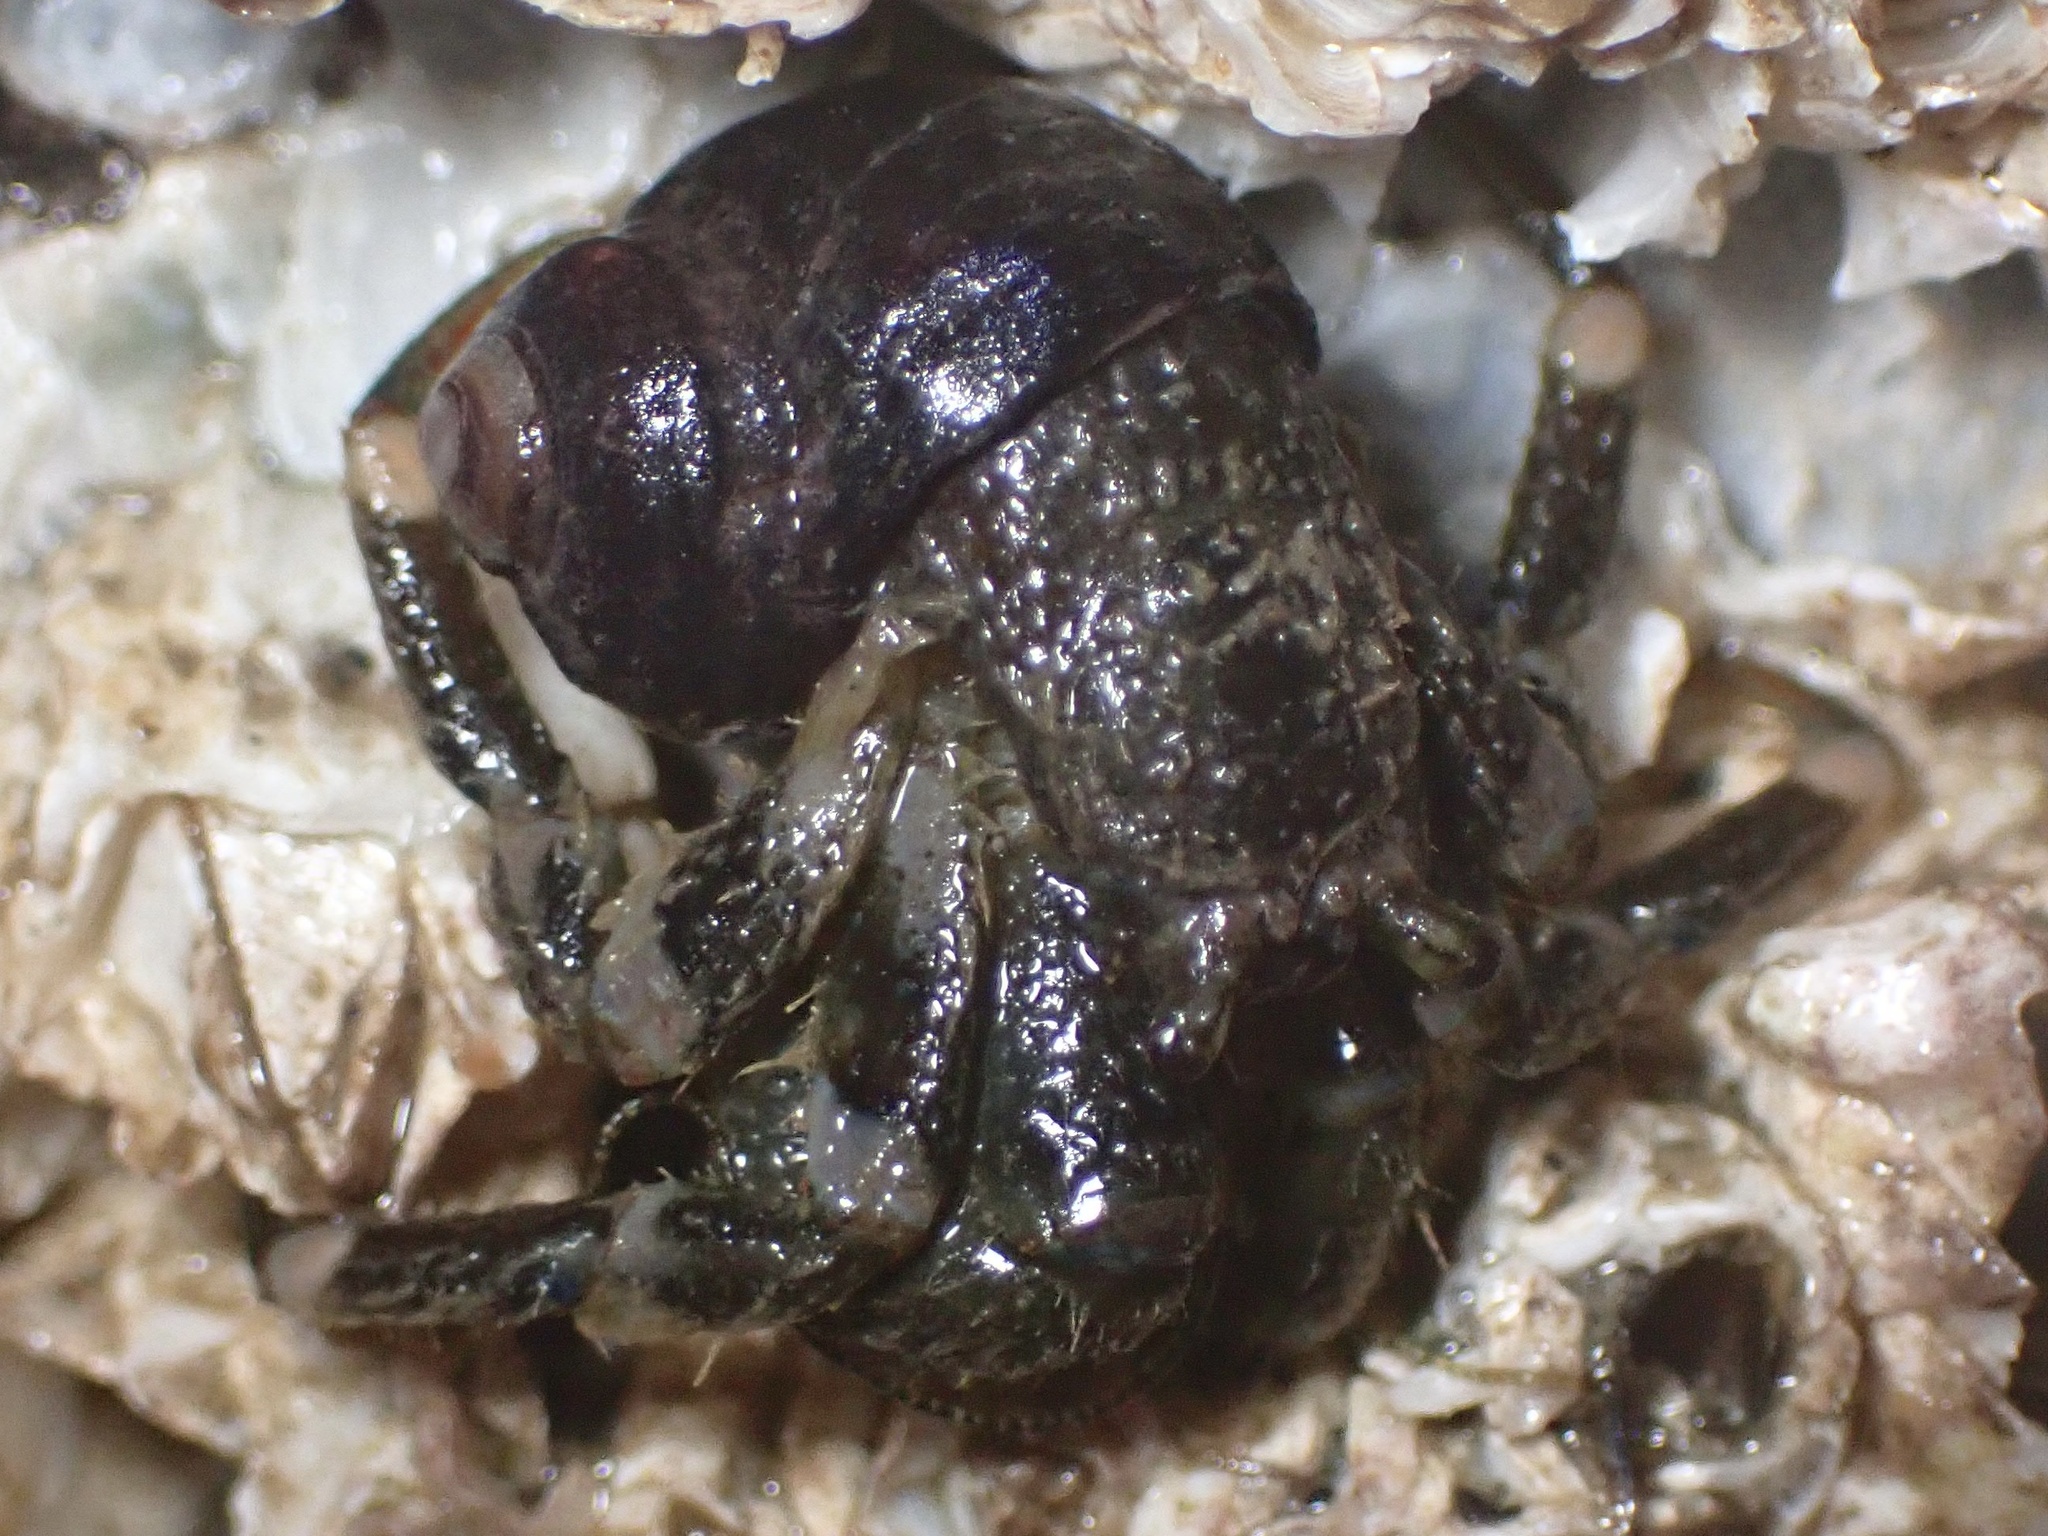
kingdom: Animalia
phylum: Arthropoda
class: Malacostraca
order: Decapoda
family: Paguridae
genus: Pagurus
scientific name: Pagurus hirsutiusculus
